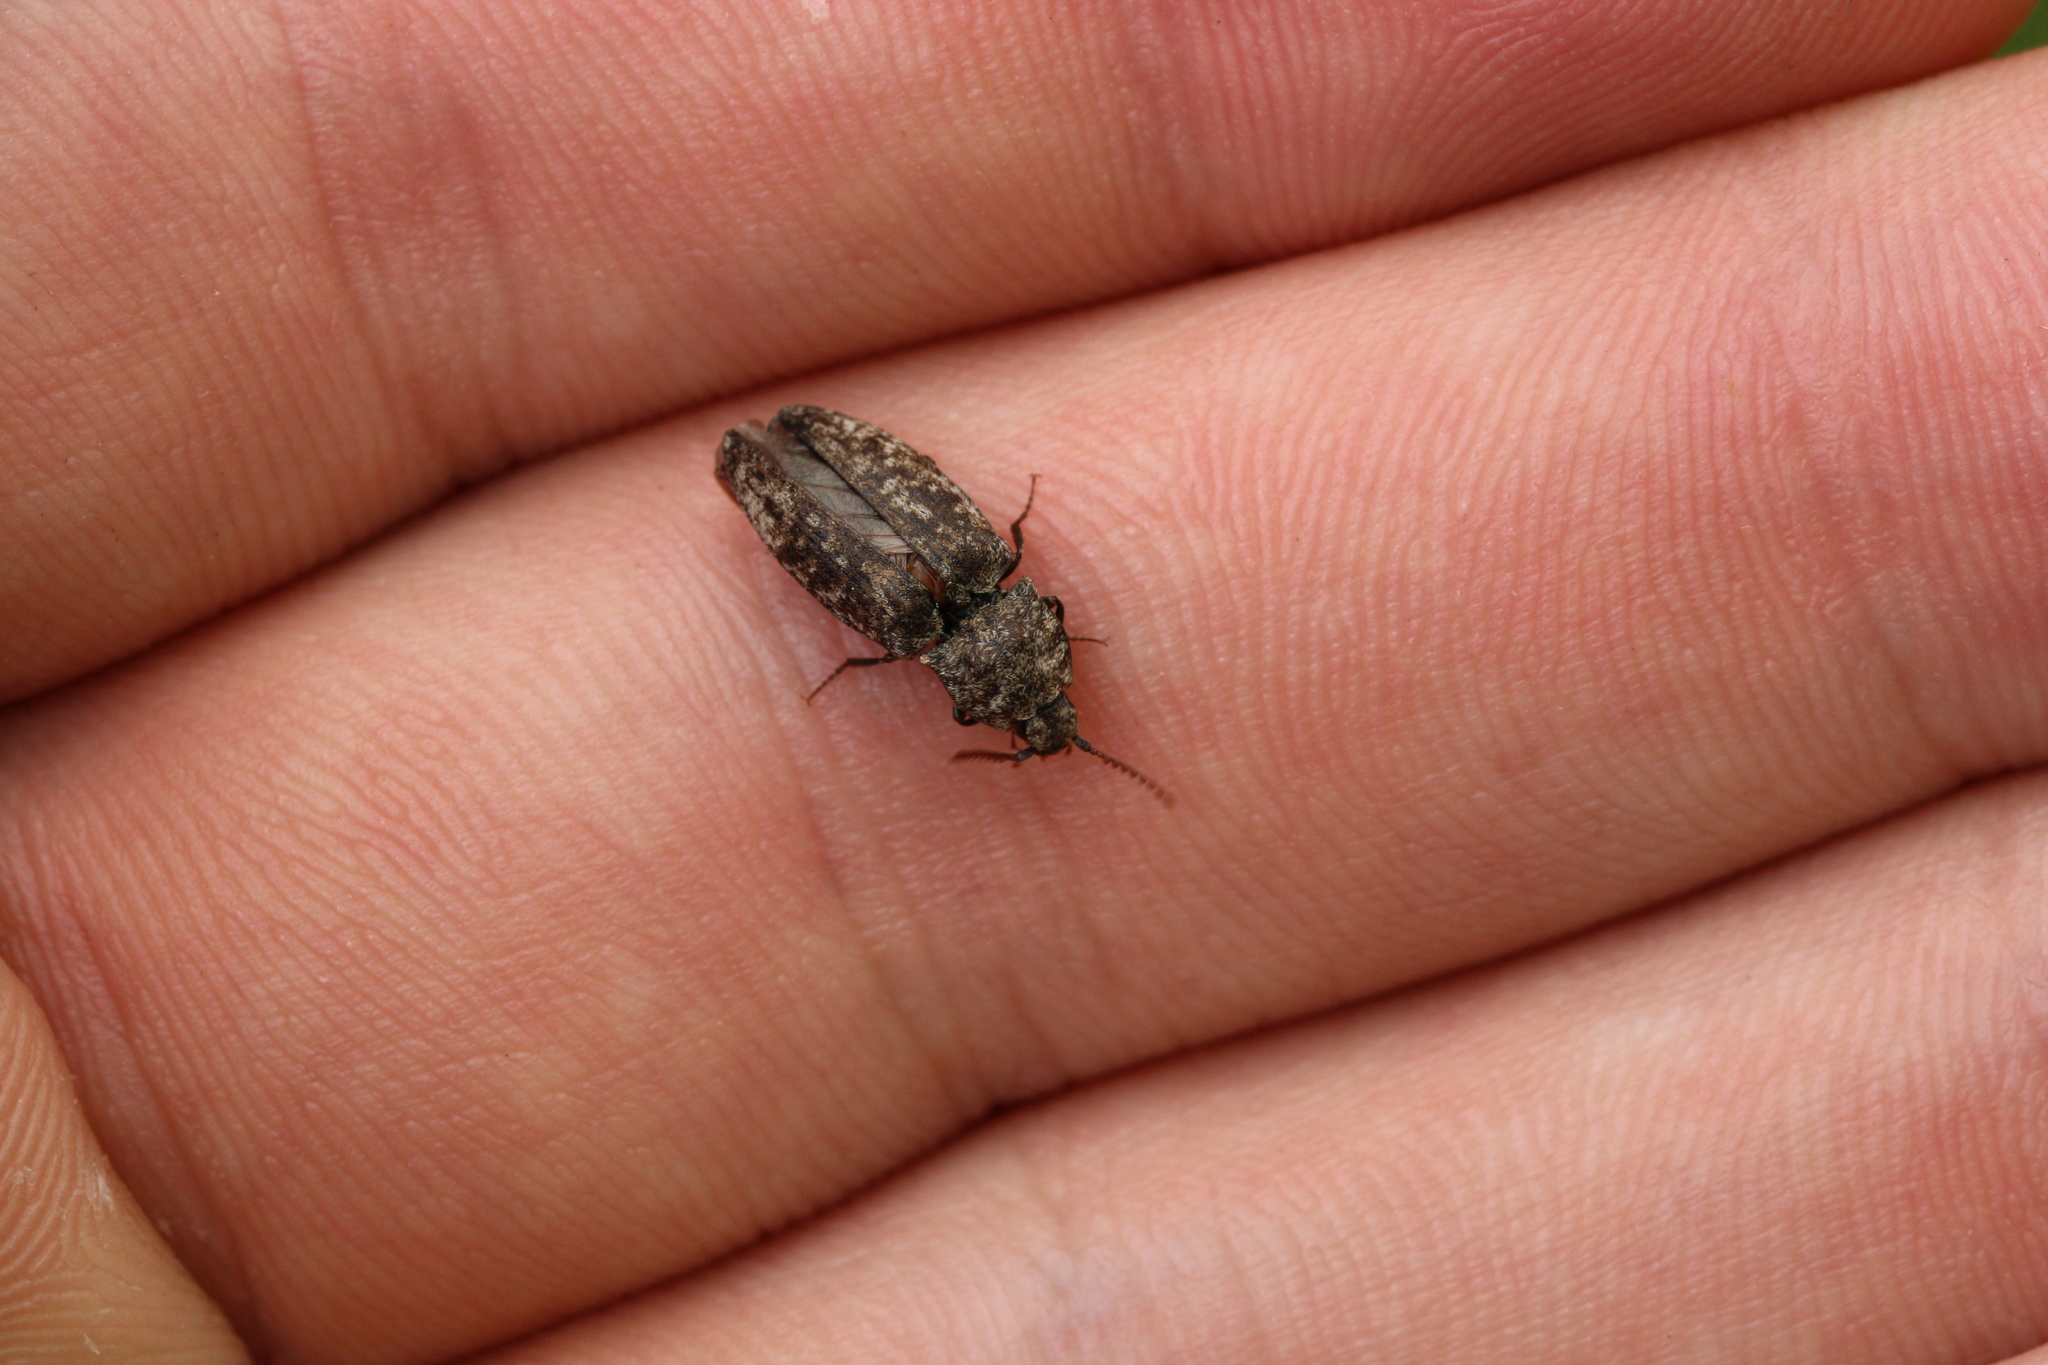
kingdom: Animalia
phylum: Arthropoda
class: Insecta
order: Coleoptera
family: Elateridae
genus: Agrypnus
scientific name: Agrypnus murinus
